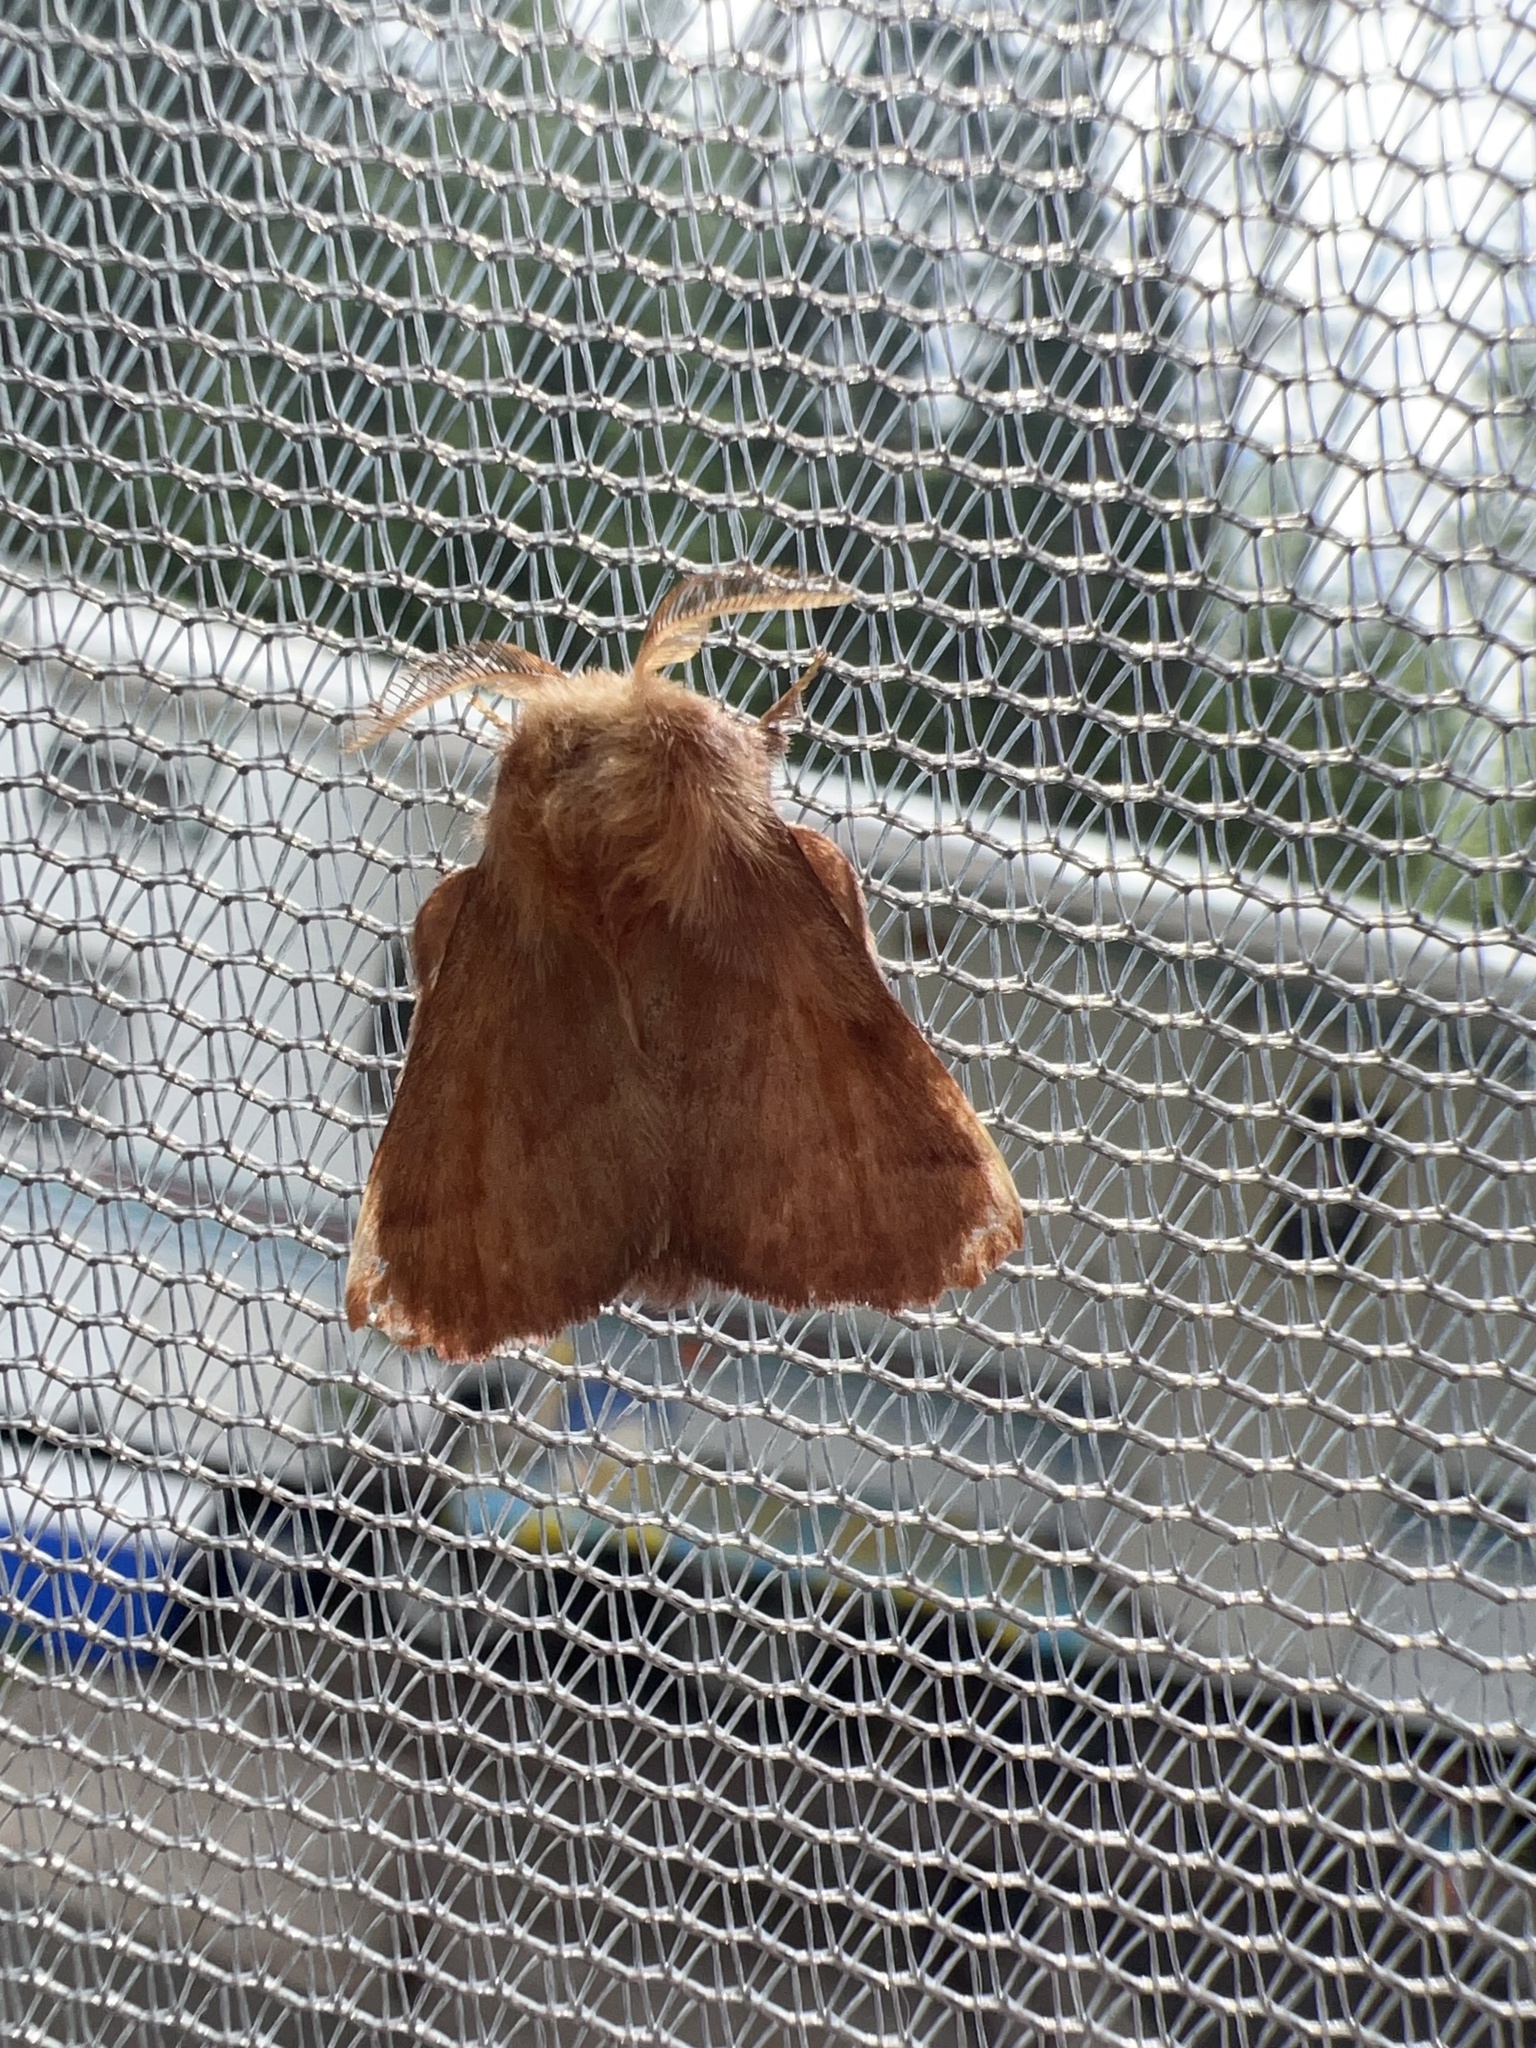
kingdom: Animalia
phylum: Arthropoda
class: Insecta
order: Lepidoptera
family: Lasiocampidae
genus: Malacosoma
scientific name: Malacosoma disstria
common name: Forest tent caterpillar
